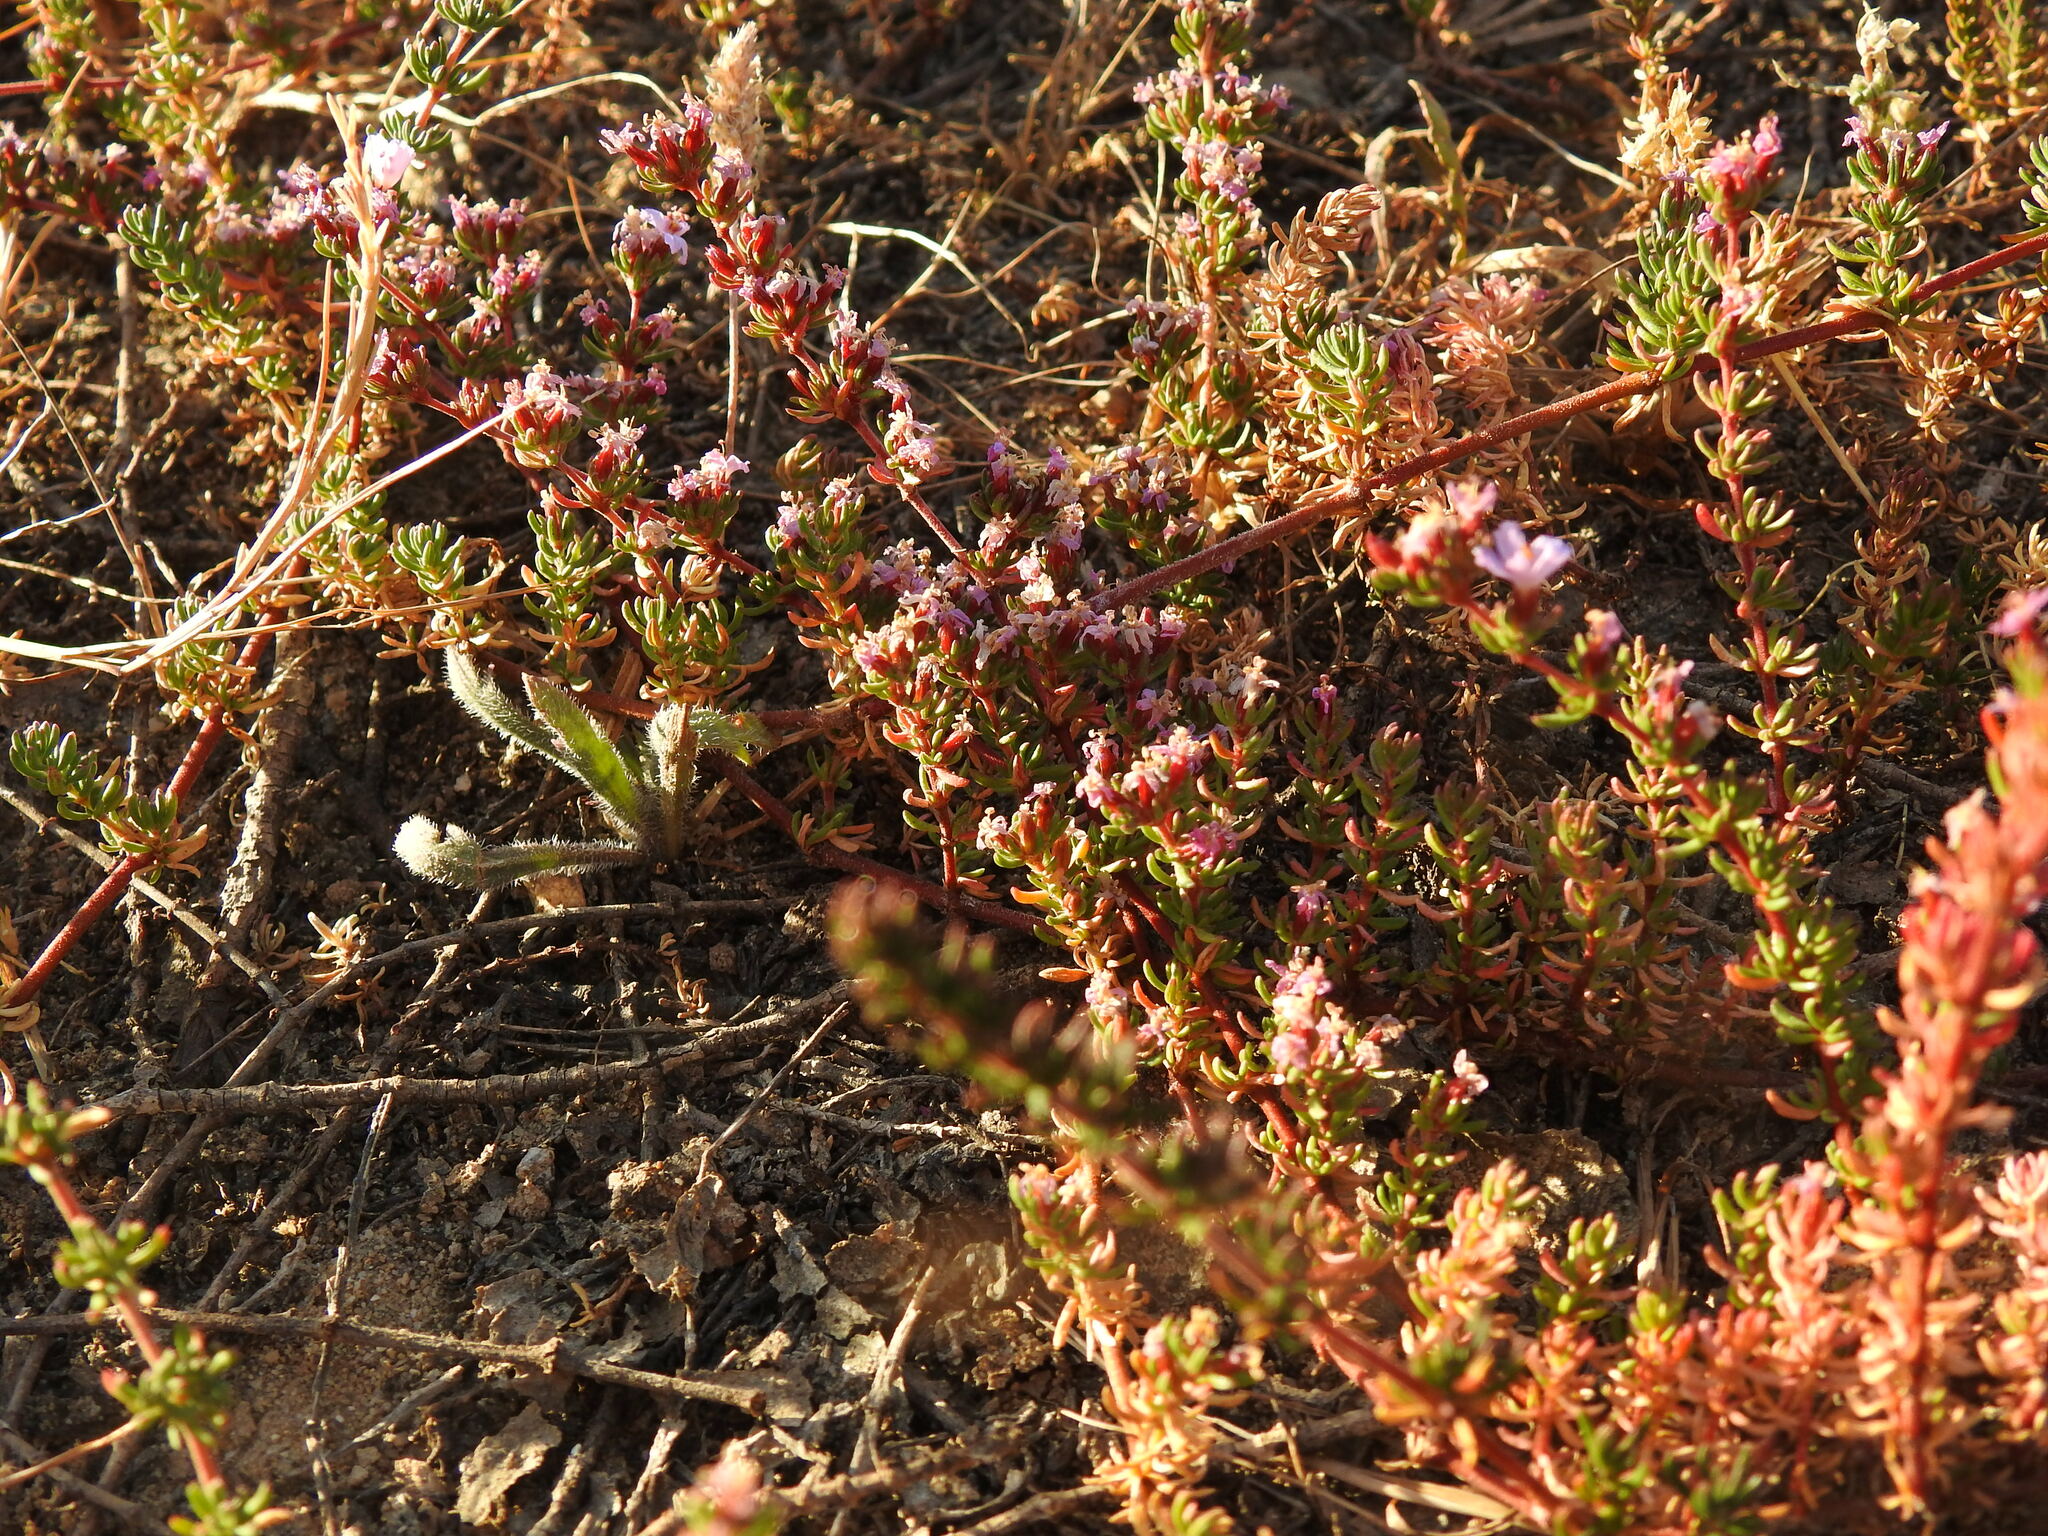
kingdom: Plantae
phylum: Tracheophyta
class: Magnoliopsida
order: Caryophyllales
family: Frankeniaceae
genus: Frankenia
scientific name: Frankenia laevis
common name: Sea-heath
